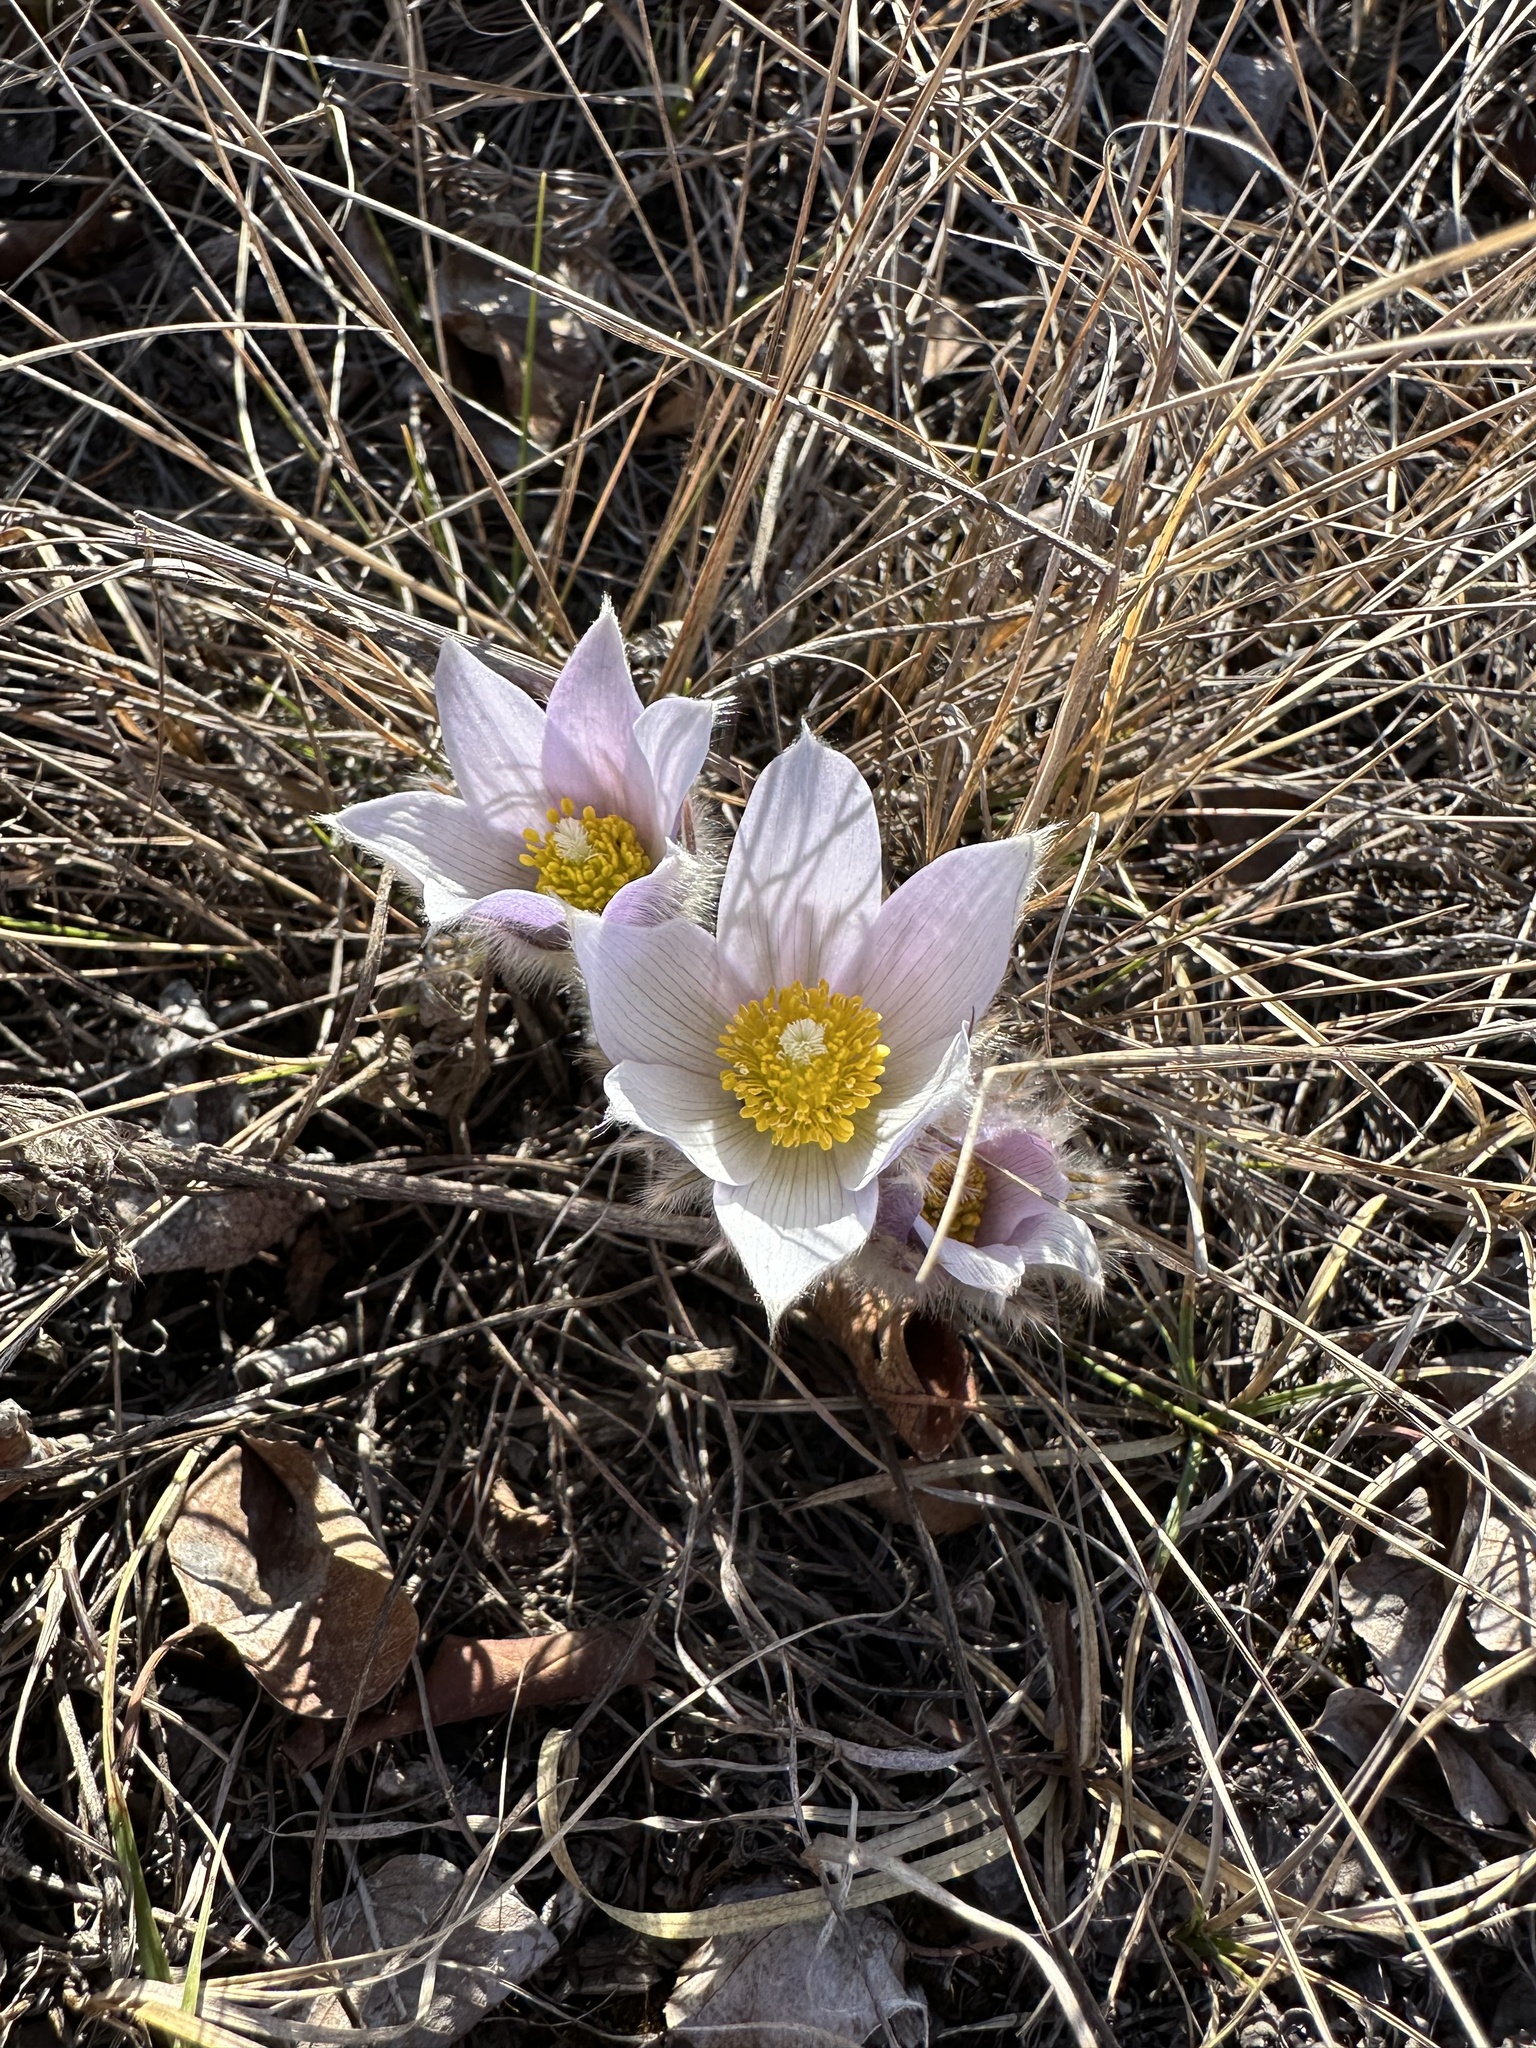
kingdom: Plantae
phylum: Tracheophyta
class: Magnoliopsida
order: Ranunculales
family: Ranunculaceae
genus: Pulsatilla
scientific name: Pulsatilla nuttalliana
